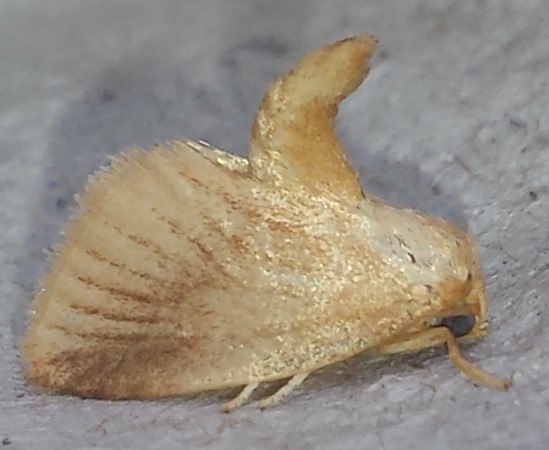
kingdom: Animalia
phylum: Arthropoda
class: Insecta
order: Lepidoptera
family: Limacodidae
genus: Tortricidia
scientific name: Tortricidia testacea
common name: Early button slug moth
